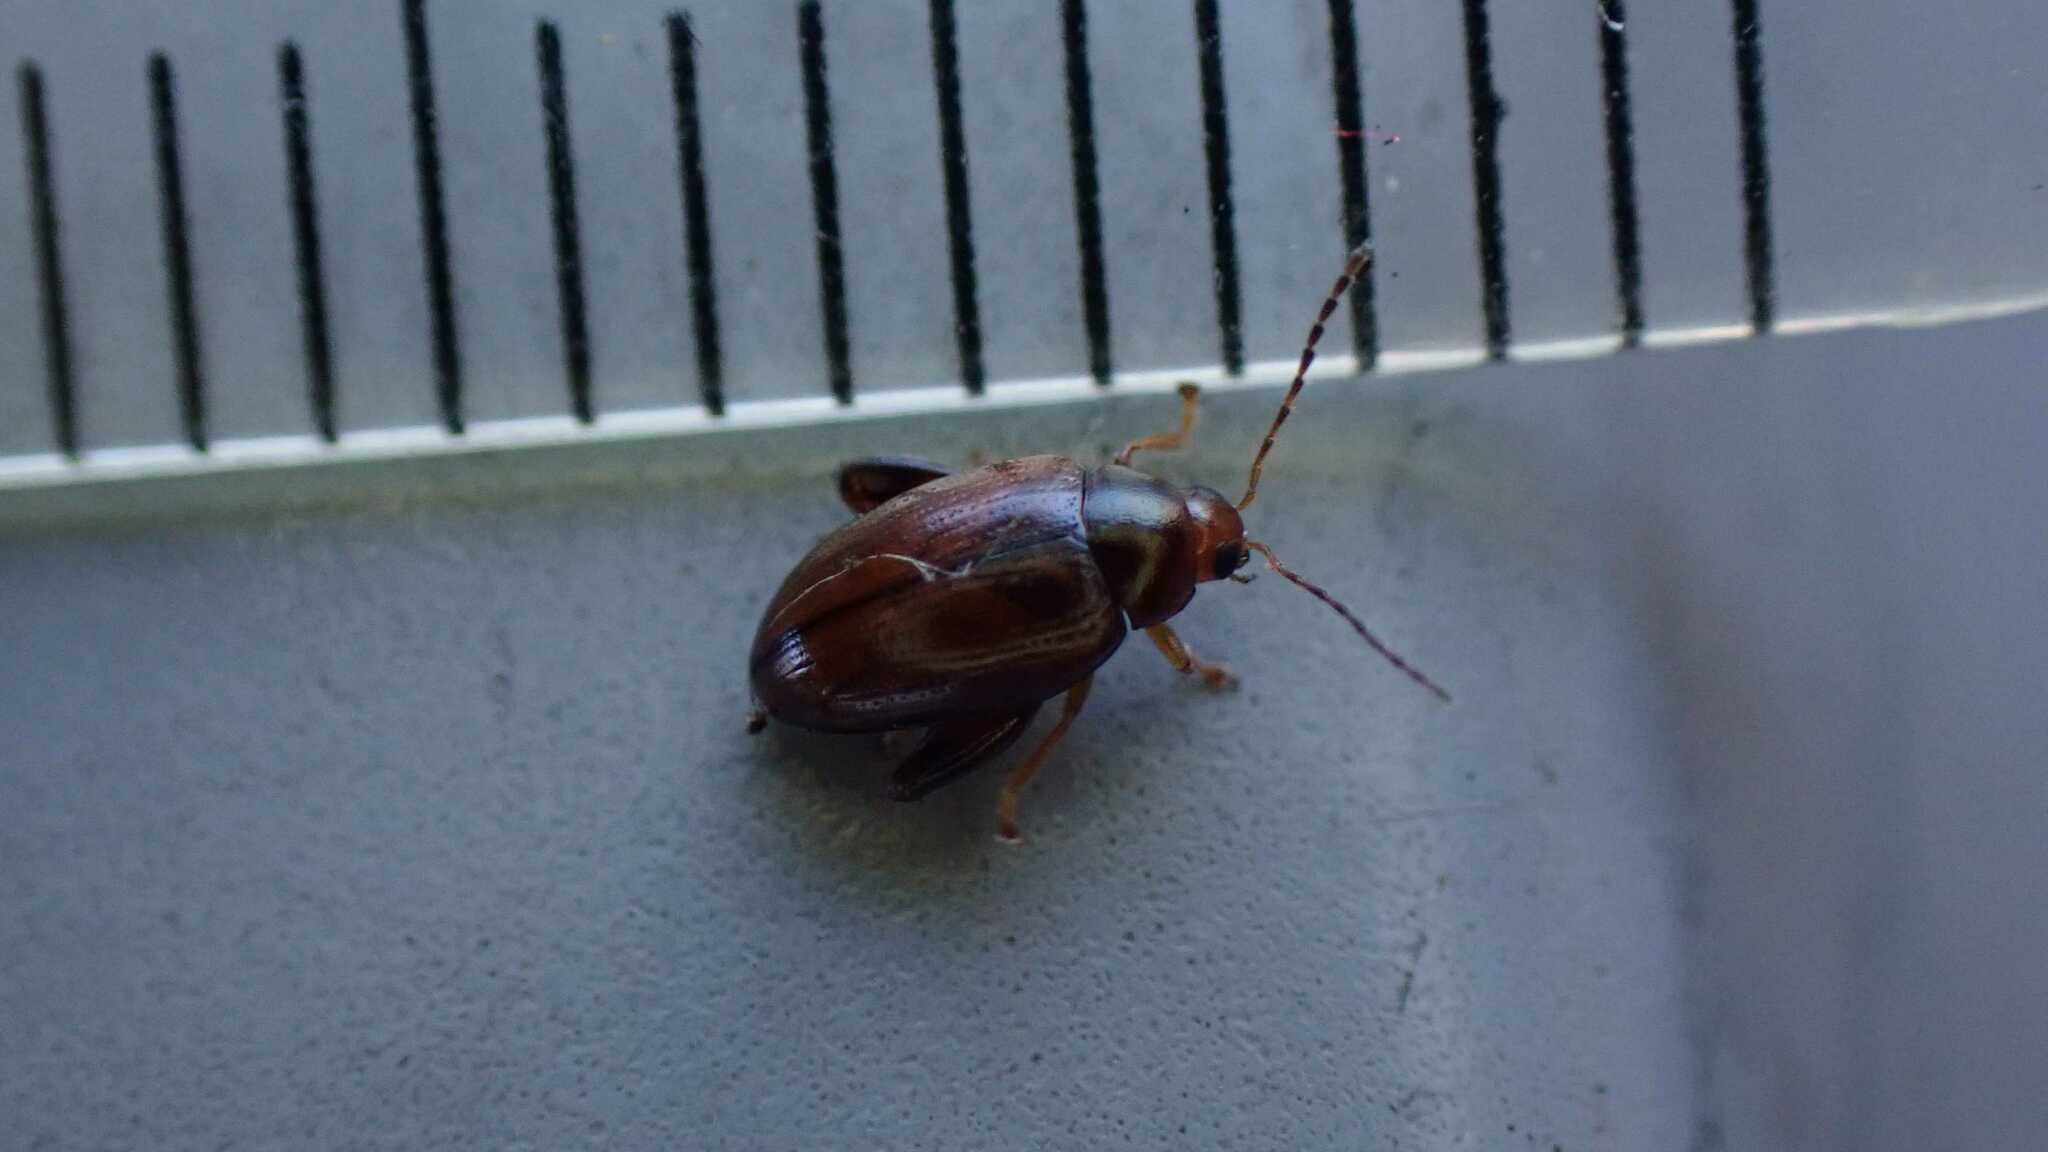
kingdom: Animalia
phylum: Arthropoda
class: Insecta
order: Coleoptera
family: Chrysomelidae
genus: Psylliodes
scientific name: Psylliodes chrysocephalus
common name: Cabbage-stem flea beetle
